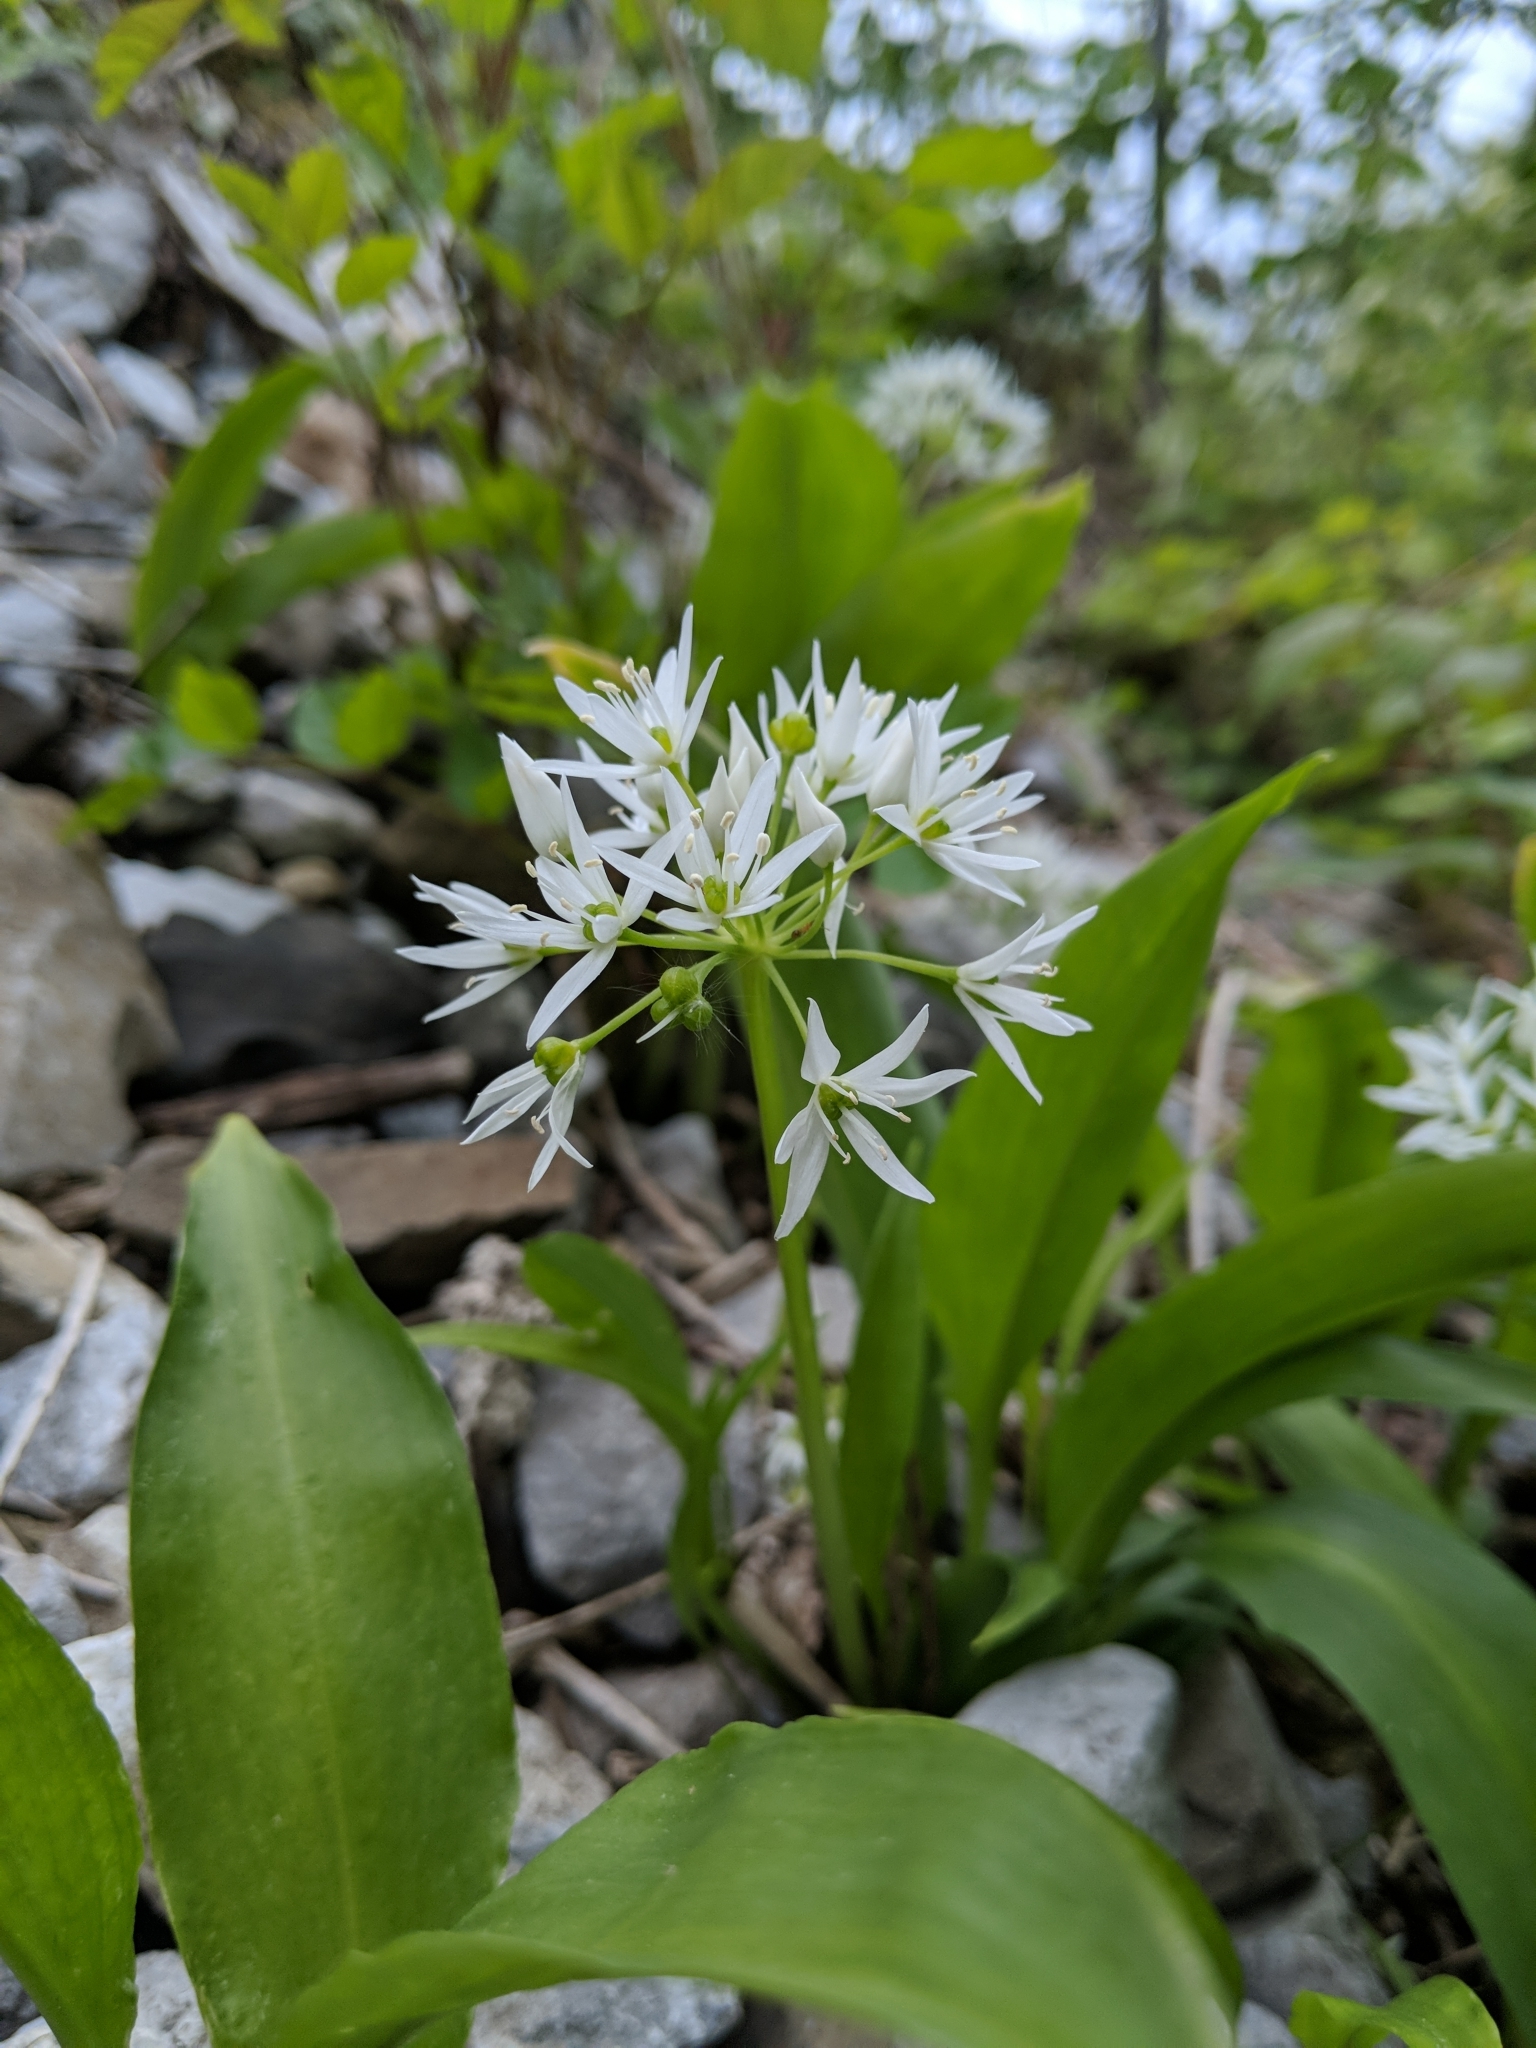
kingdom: Plantae
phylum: Tracheophyta
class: Liliopsida
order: Asparagales
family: Amaryllidaceae
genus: Allium
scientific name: Allium ursinum
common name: Ramsons
